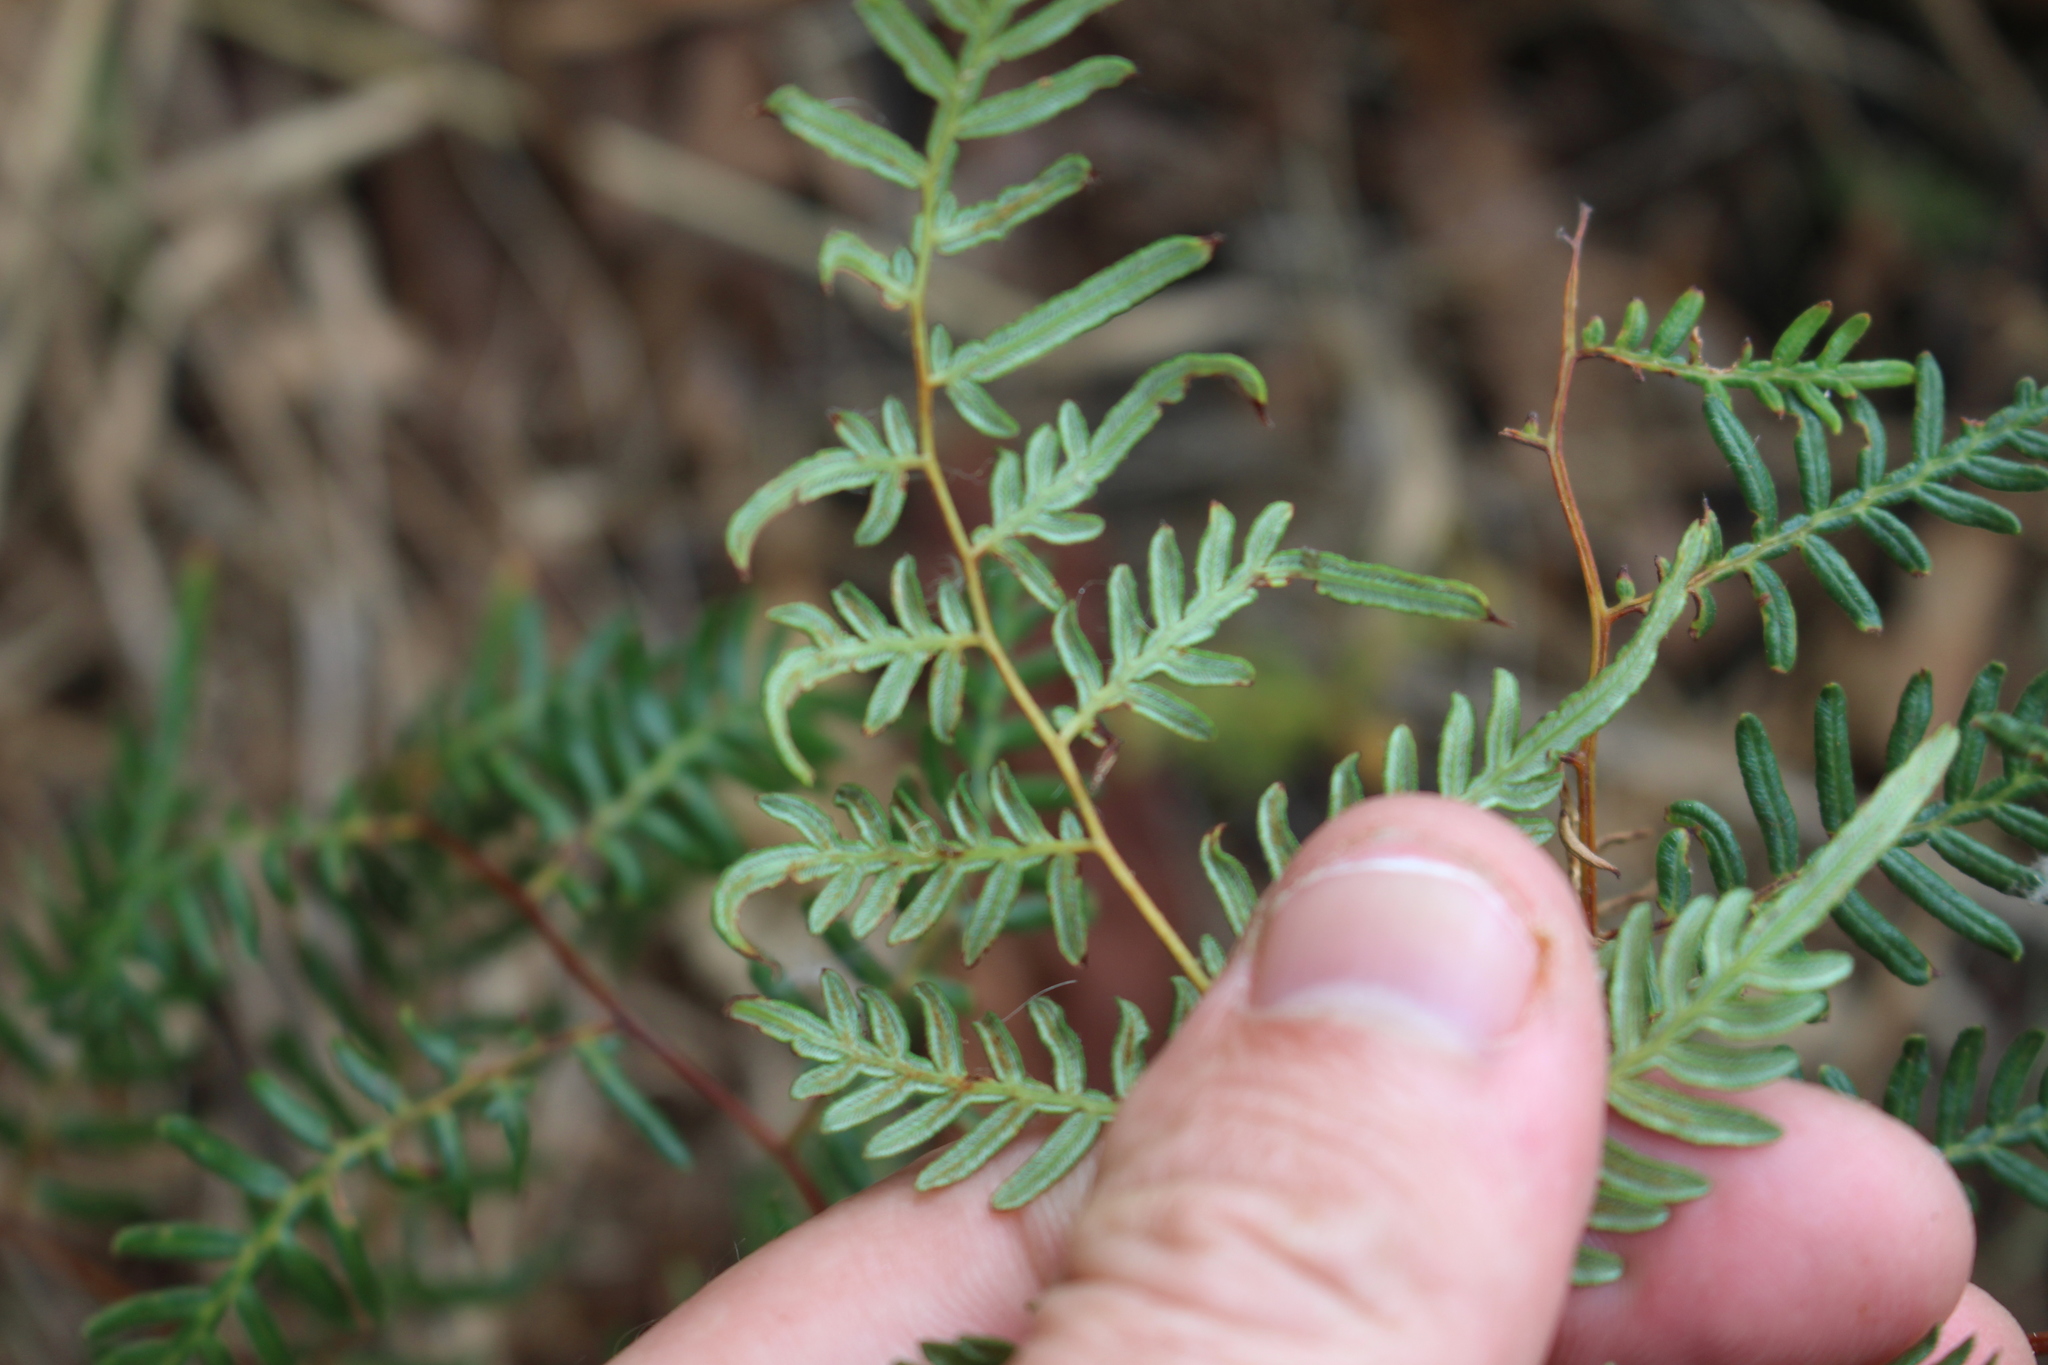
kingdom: Plantae
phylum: Tracheophyta
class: Polypodiopsida
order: Polypodiales
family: Dennstaedtiaceae
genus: Pteridium
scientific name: Pteridium esculentum
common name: Bracken fern
